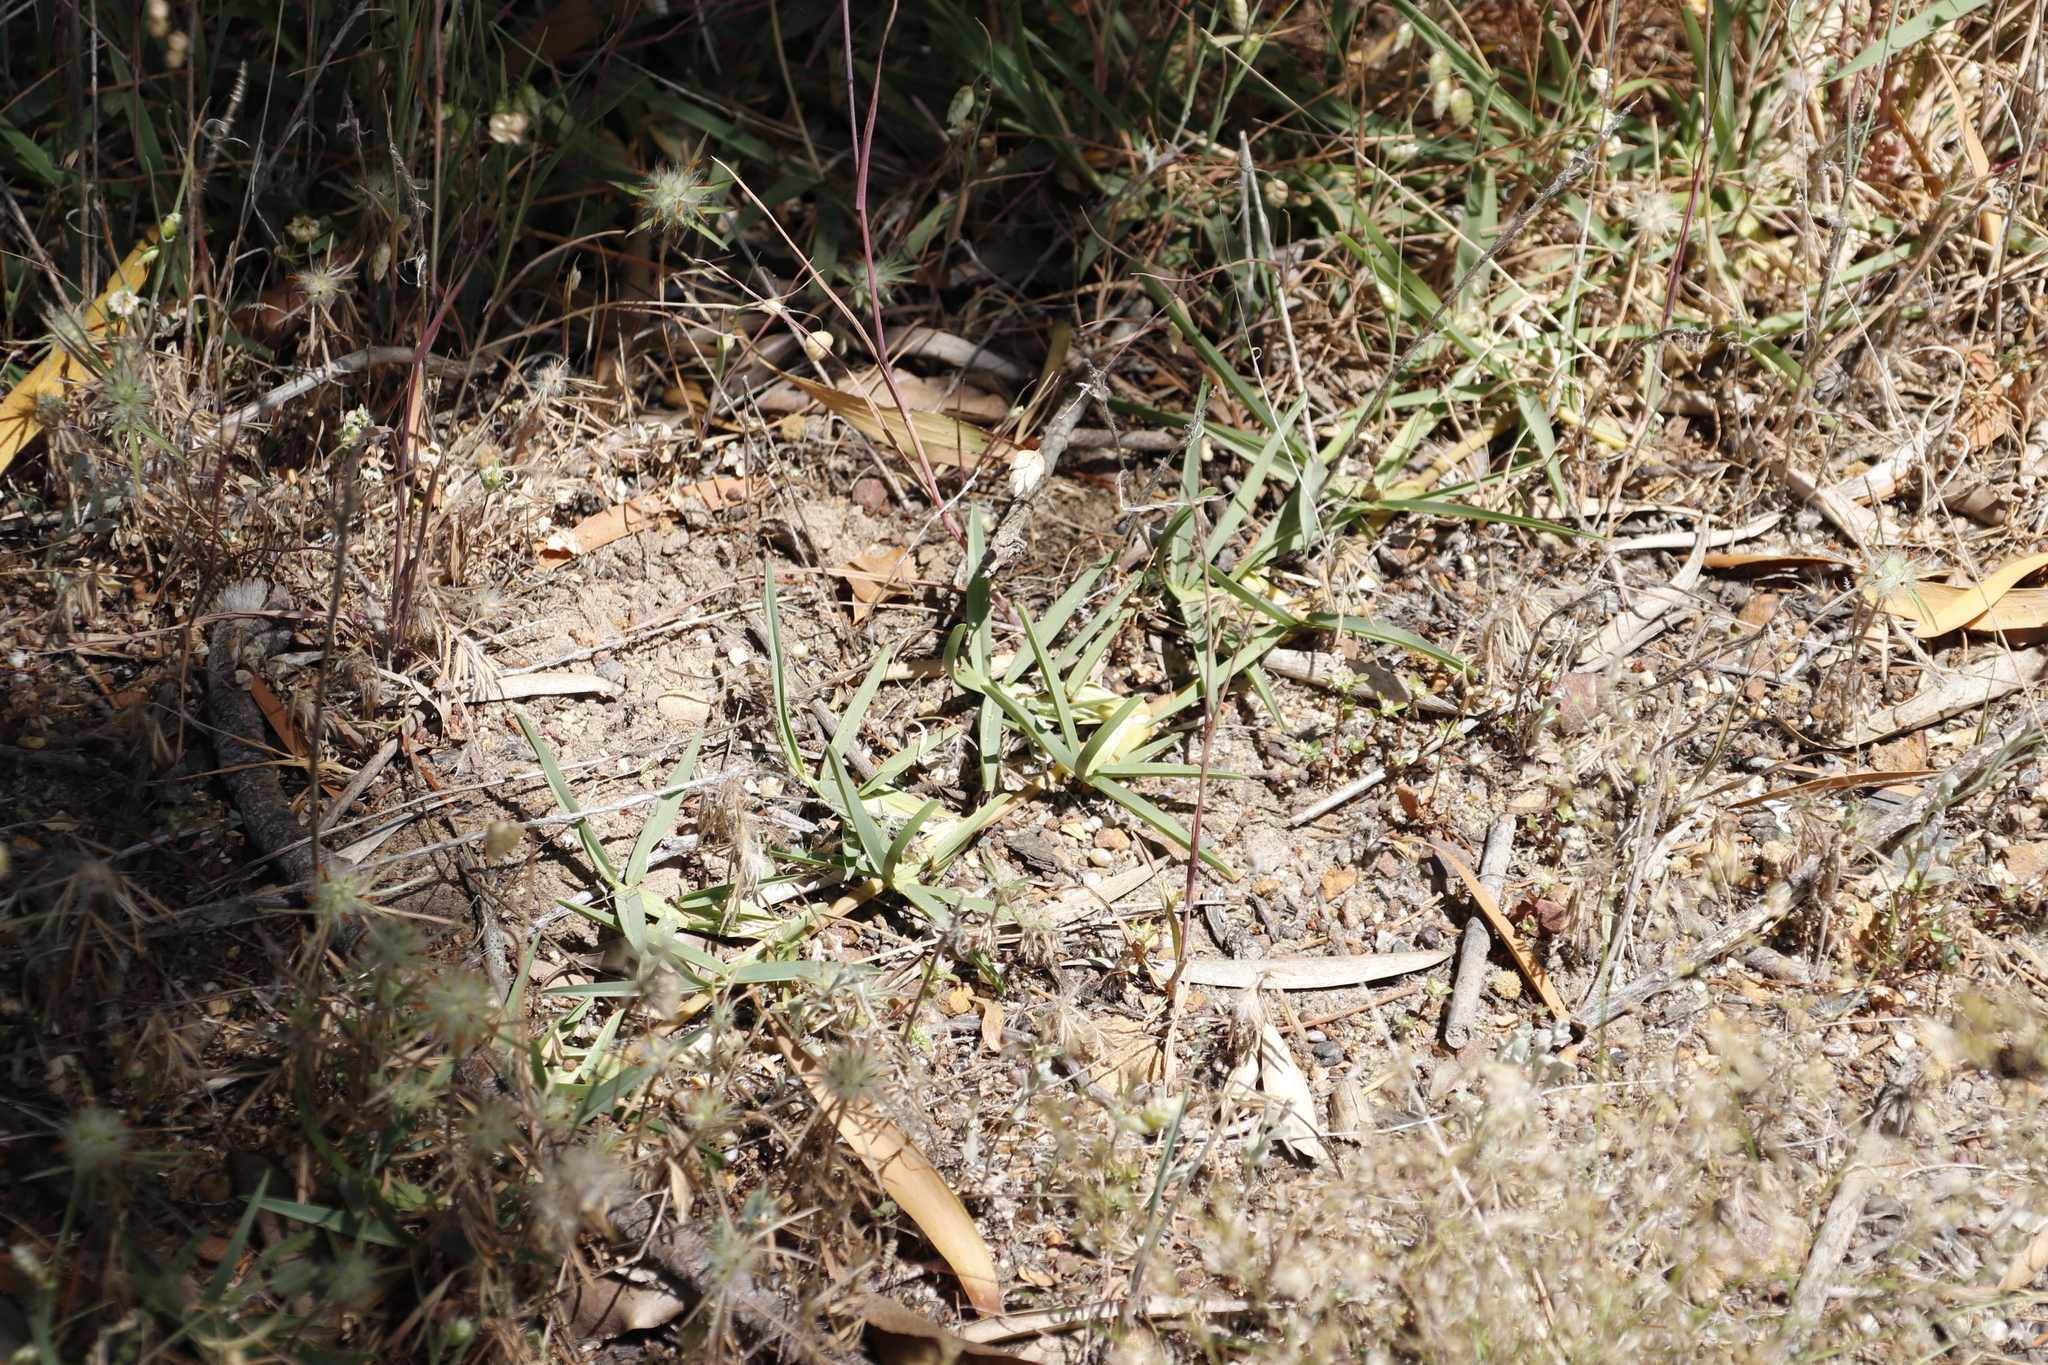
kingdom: Plantae
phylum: Tracheophyta
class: Liliopsida
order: Poales
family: Poaceae
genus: Stenotaphrum
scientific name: Stenotaphrum secundatum
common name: St. augustine grass
